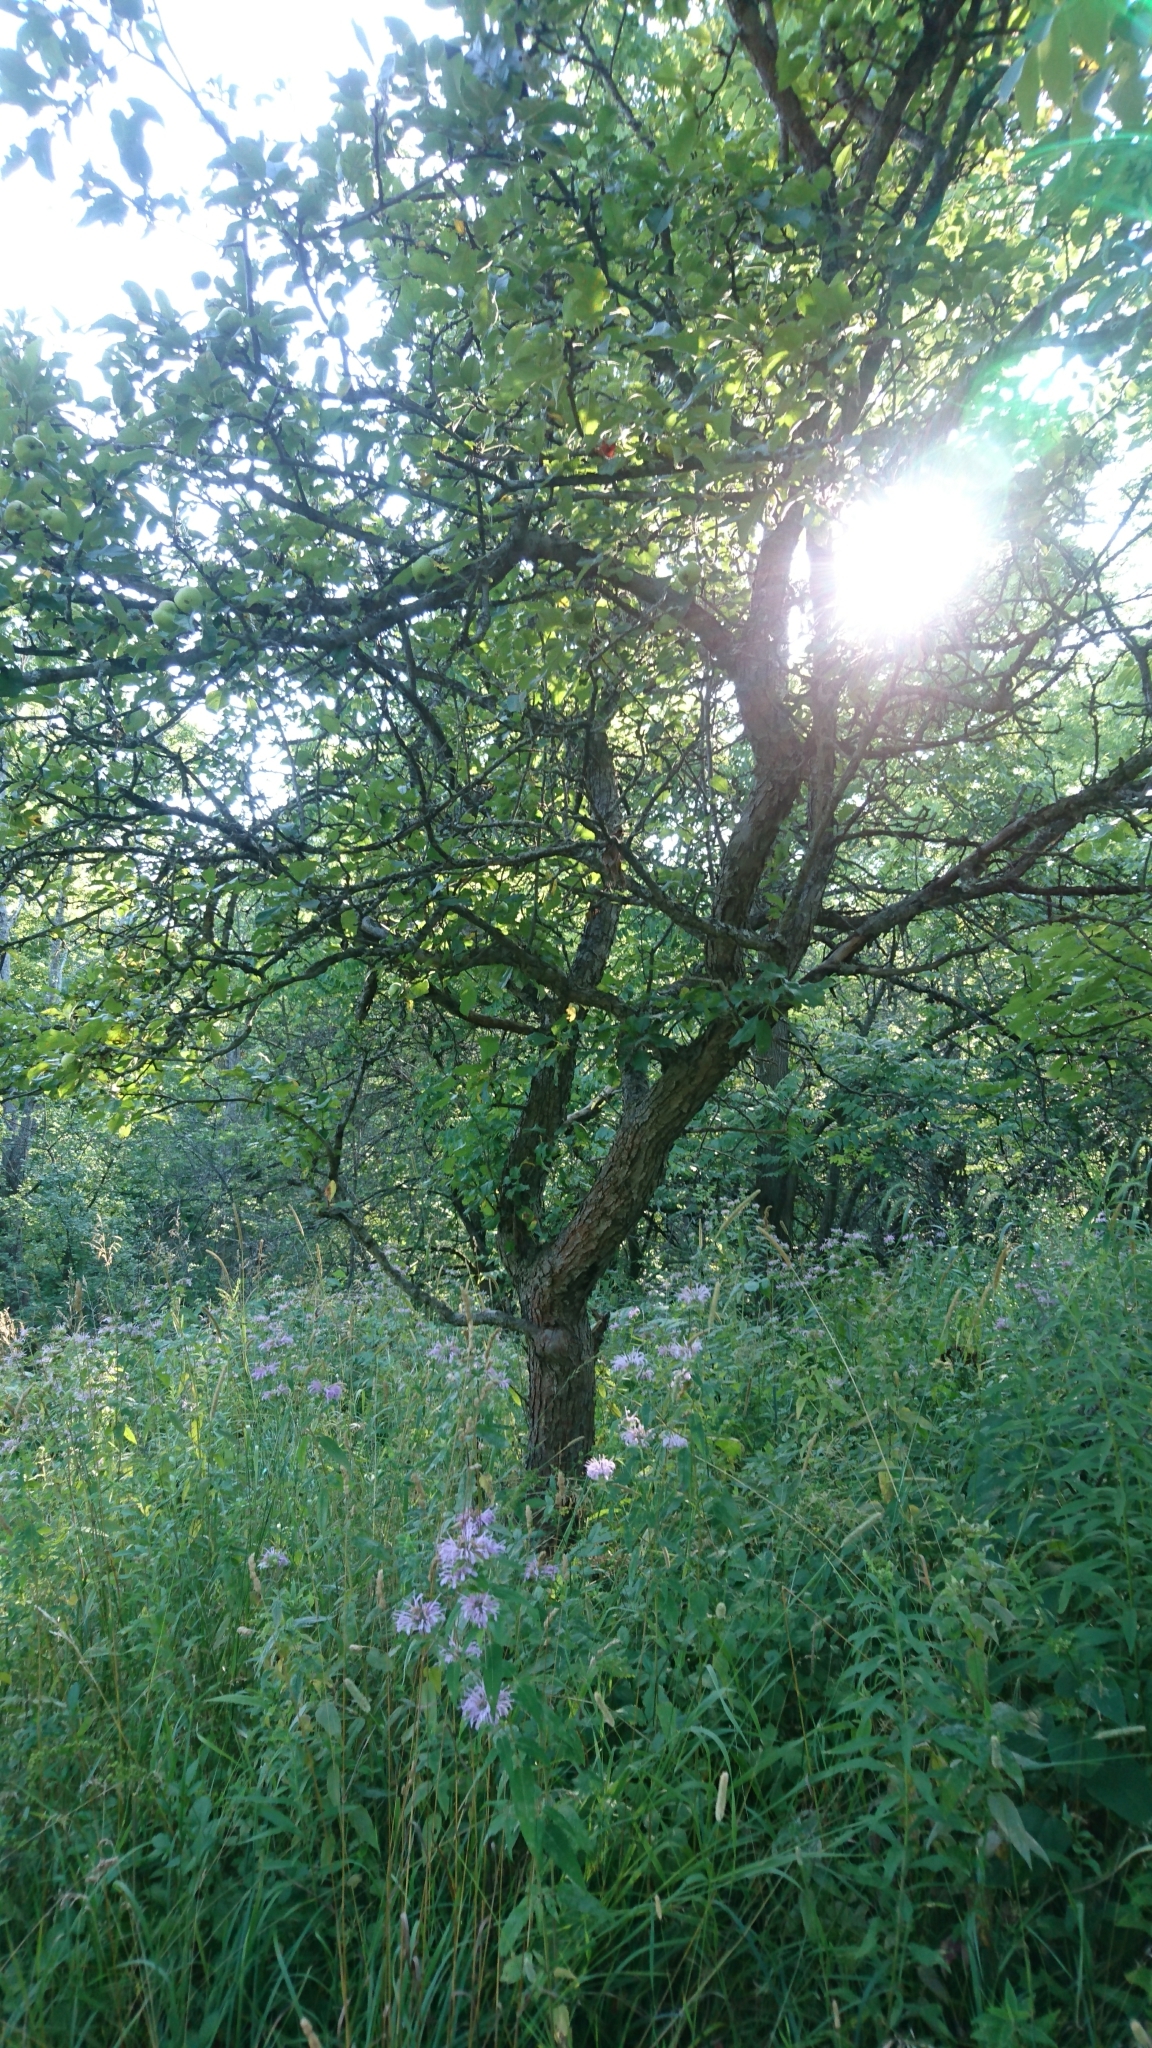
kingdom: Plantae
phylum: Tracheophyta
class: Magnoliopsida
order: Rosales
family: Rosaceae
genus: Malus
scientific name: Malus domestica
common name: Apple
